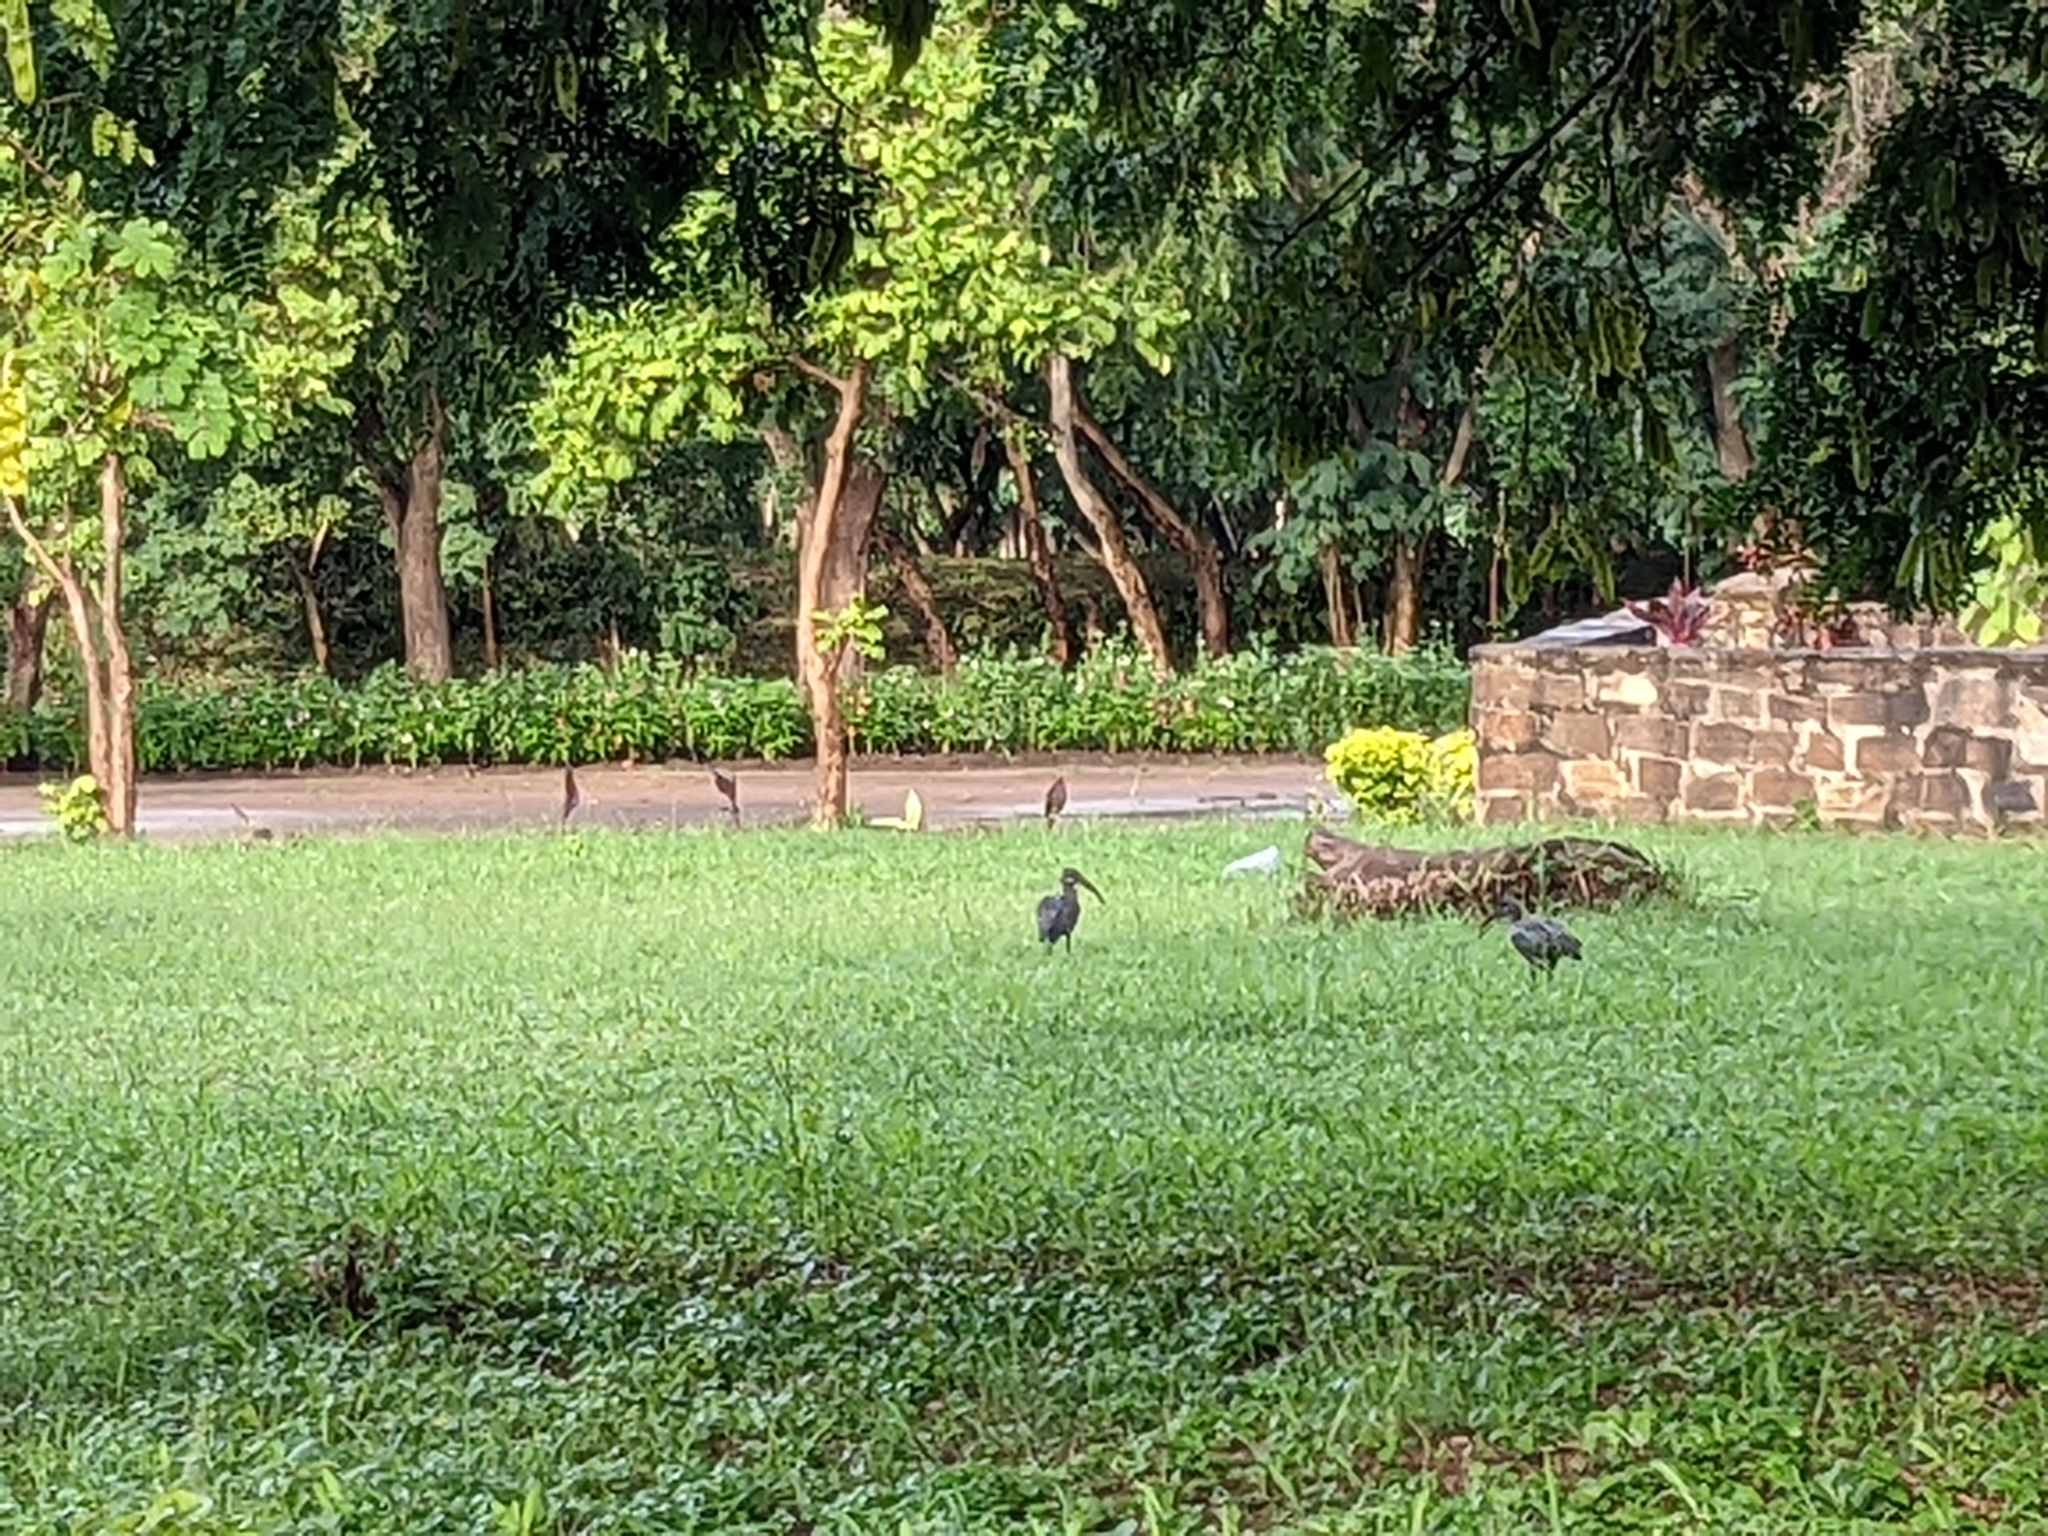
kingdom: Animalia
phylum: Chordata
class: Aves
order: Pelecaniformes
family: Threskiornithidae
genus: Bostrychia
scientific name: Bostrychia hagedash
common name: Hadada ibis
